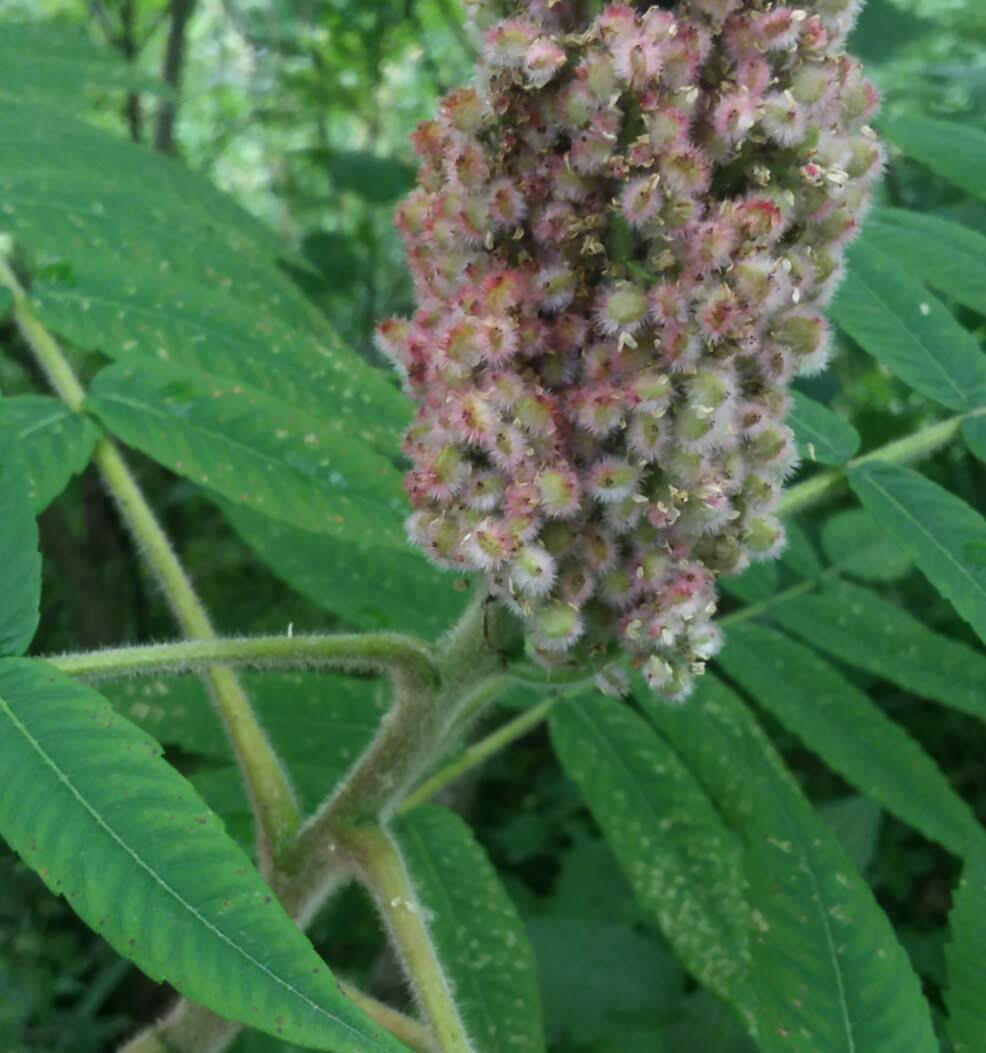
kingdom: Plantae
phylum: Tracheophyta
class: Magnoliopsida
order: Sapindales
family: Anacardiaceae
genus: Rhus
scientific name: Rhus typhina
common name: Staghorn sumac
